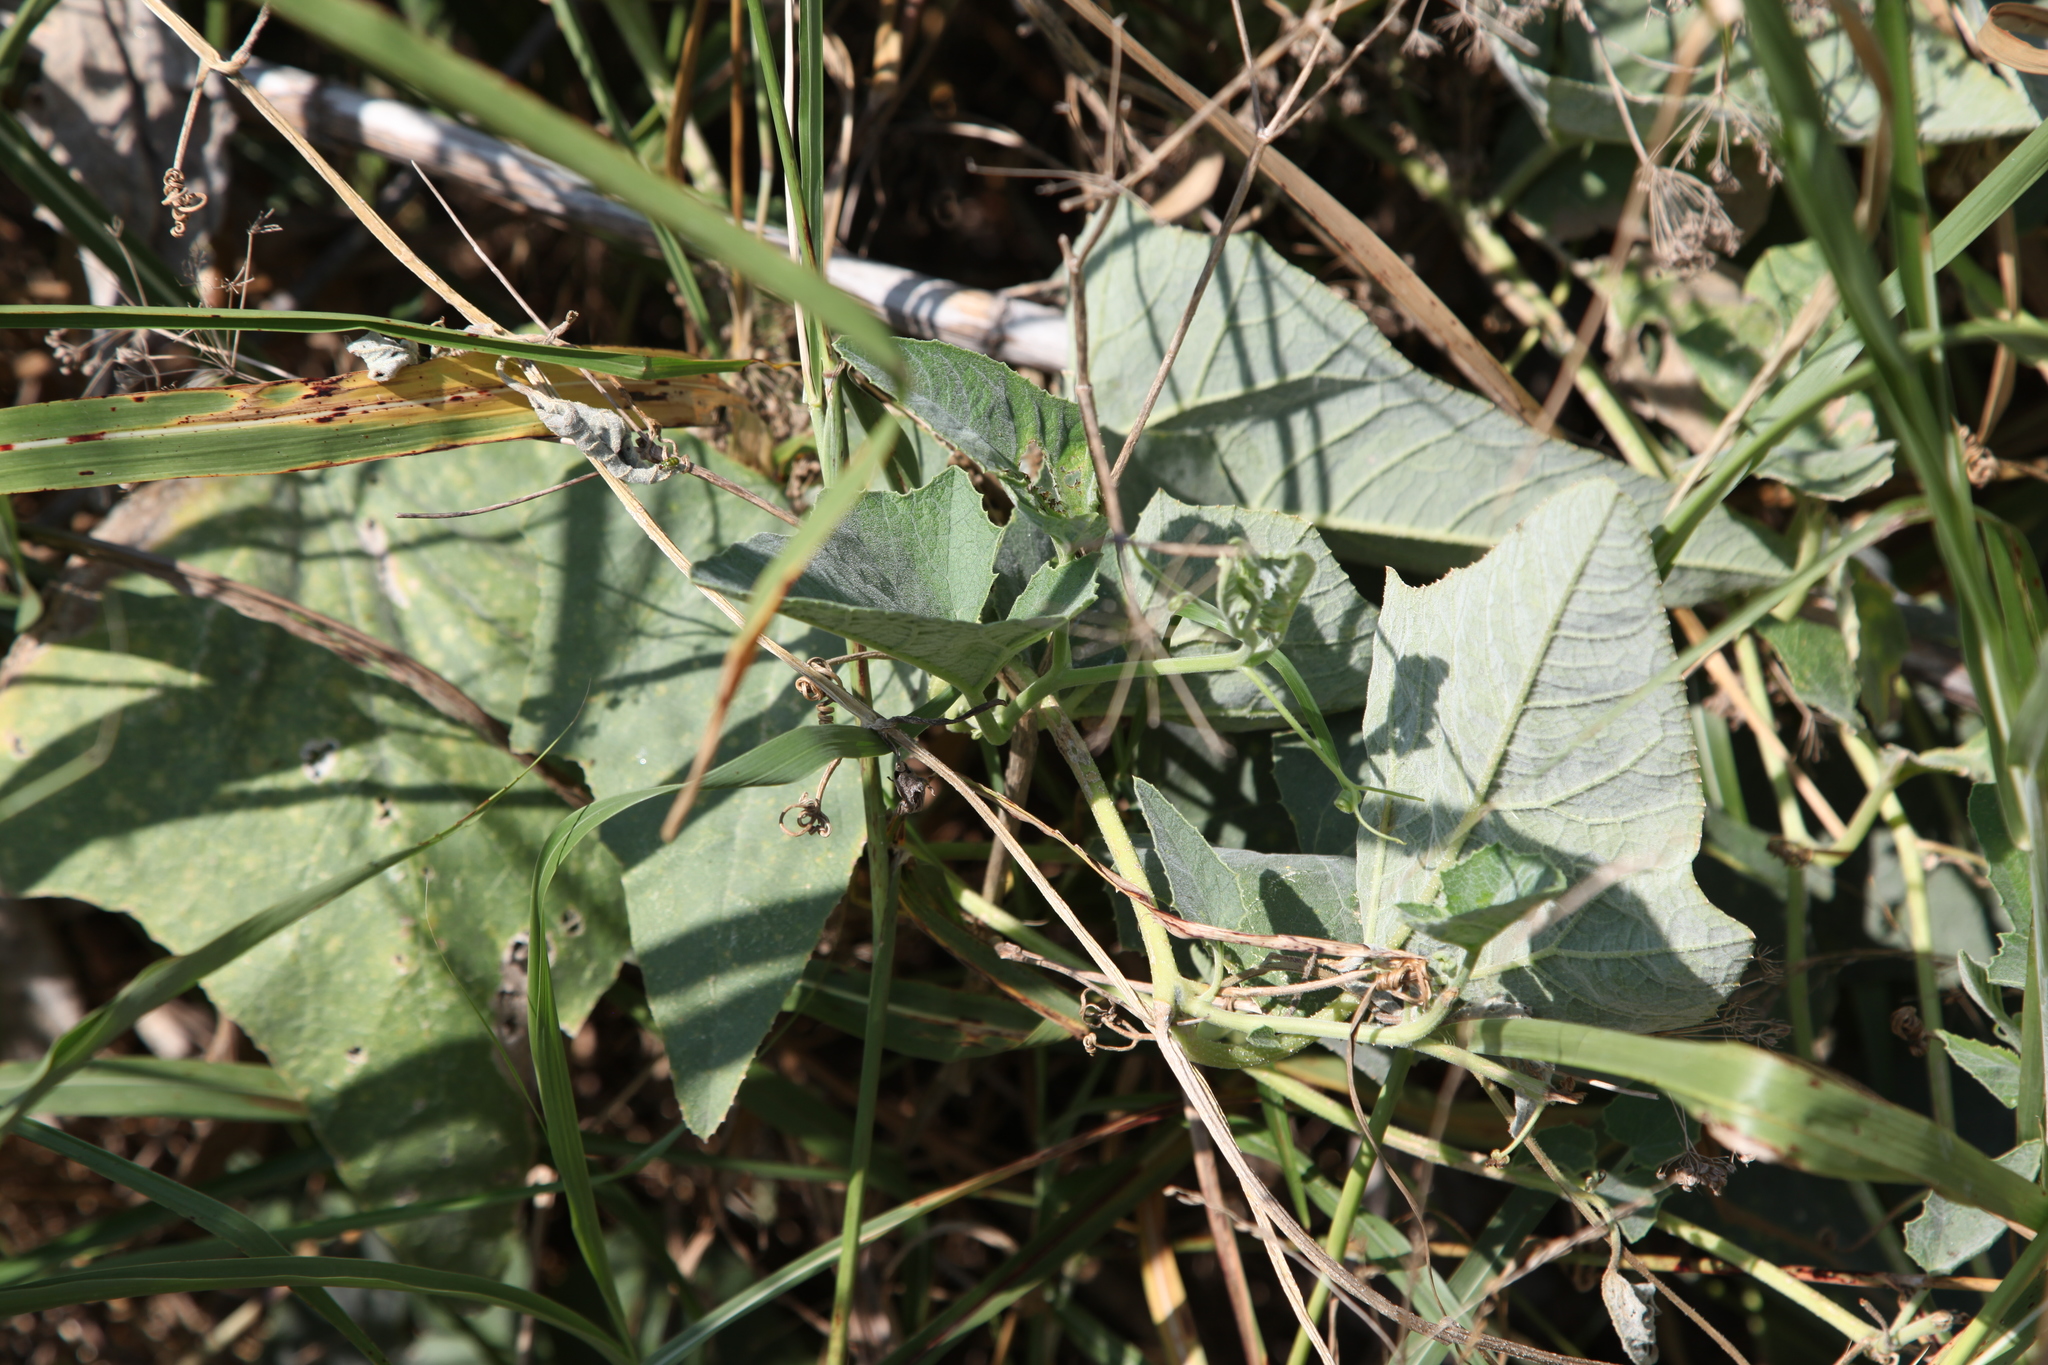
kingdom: Plantae
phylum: Tracheophyta
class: Magnoliopsida
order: Cucurbitales
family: Cucurbitaceae
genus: Cucurbita
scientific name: Cucurbita foetidissima
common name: Buffalo gourd
